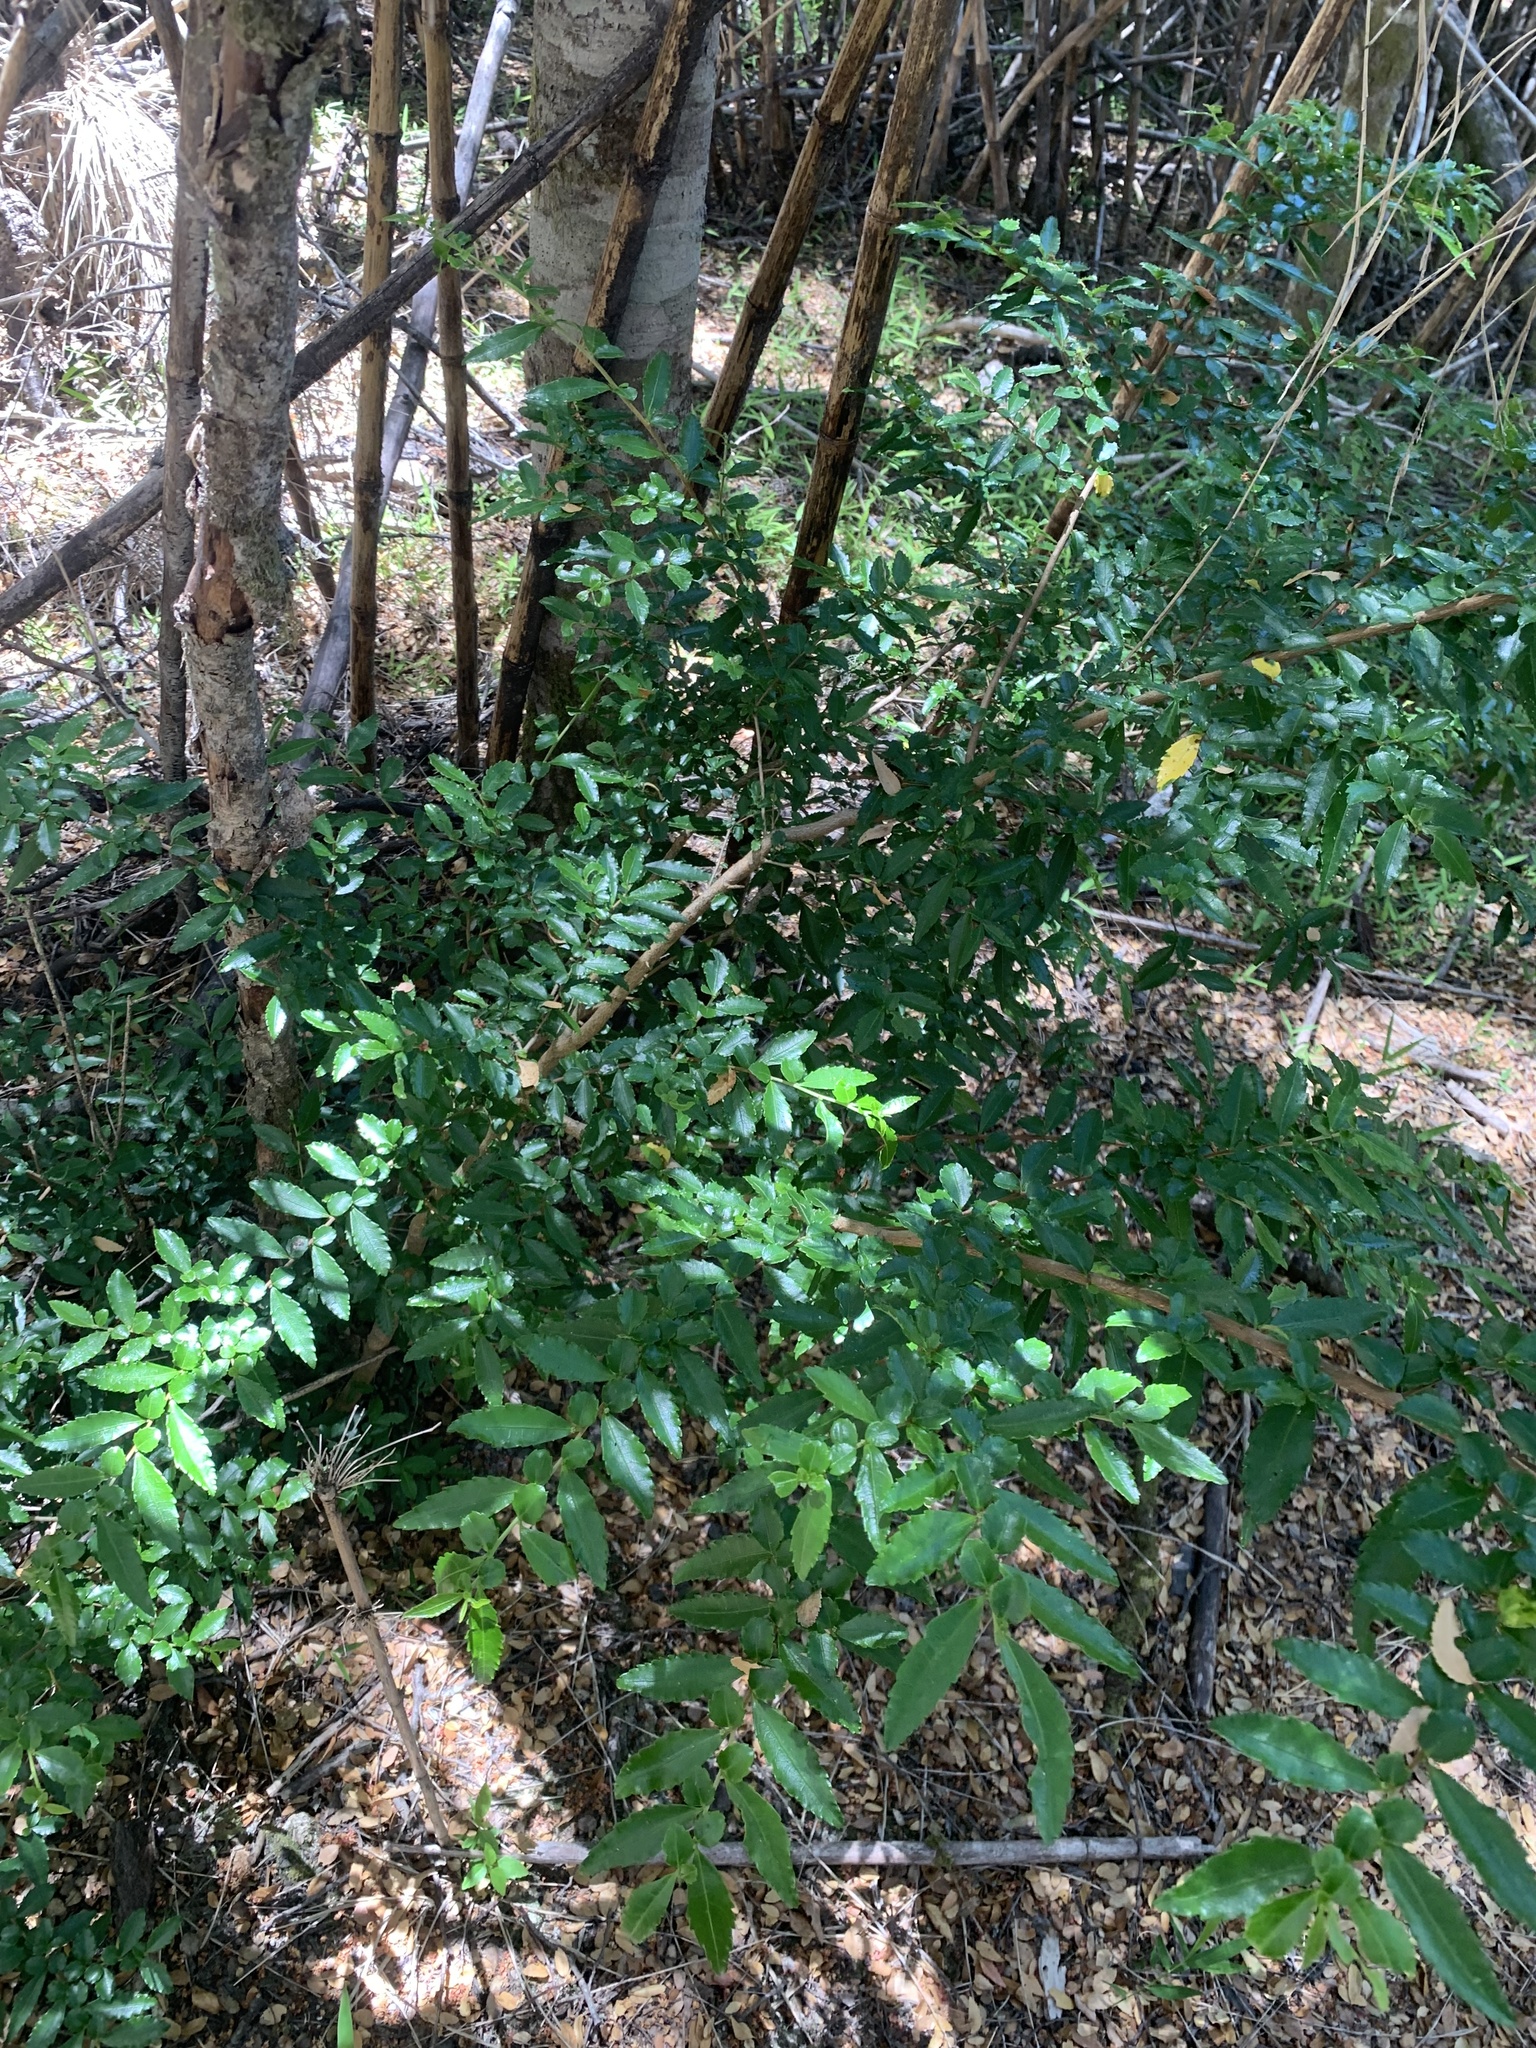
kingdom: Plantae
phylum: Tracheophyta
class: Magnoliopsida
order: Malpighiales
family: Salicaceae
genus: Azara
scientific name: Azara lanceolata
